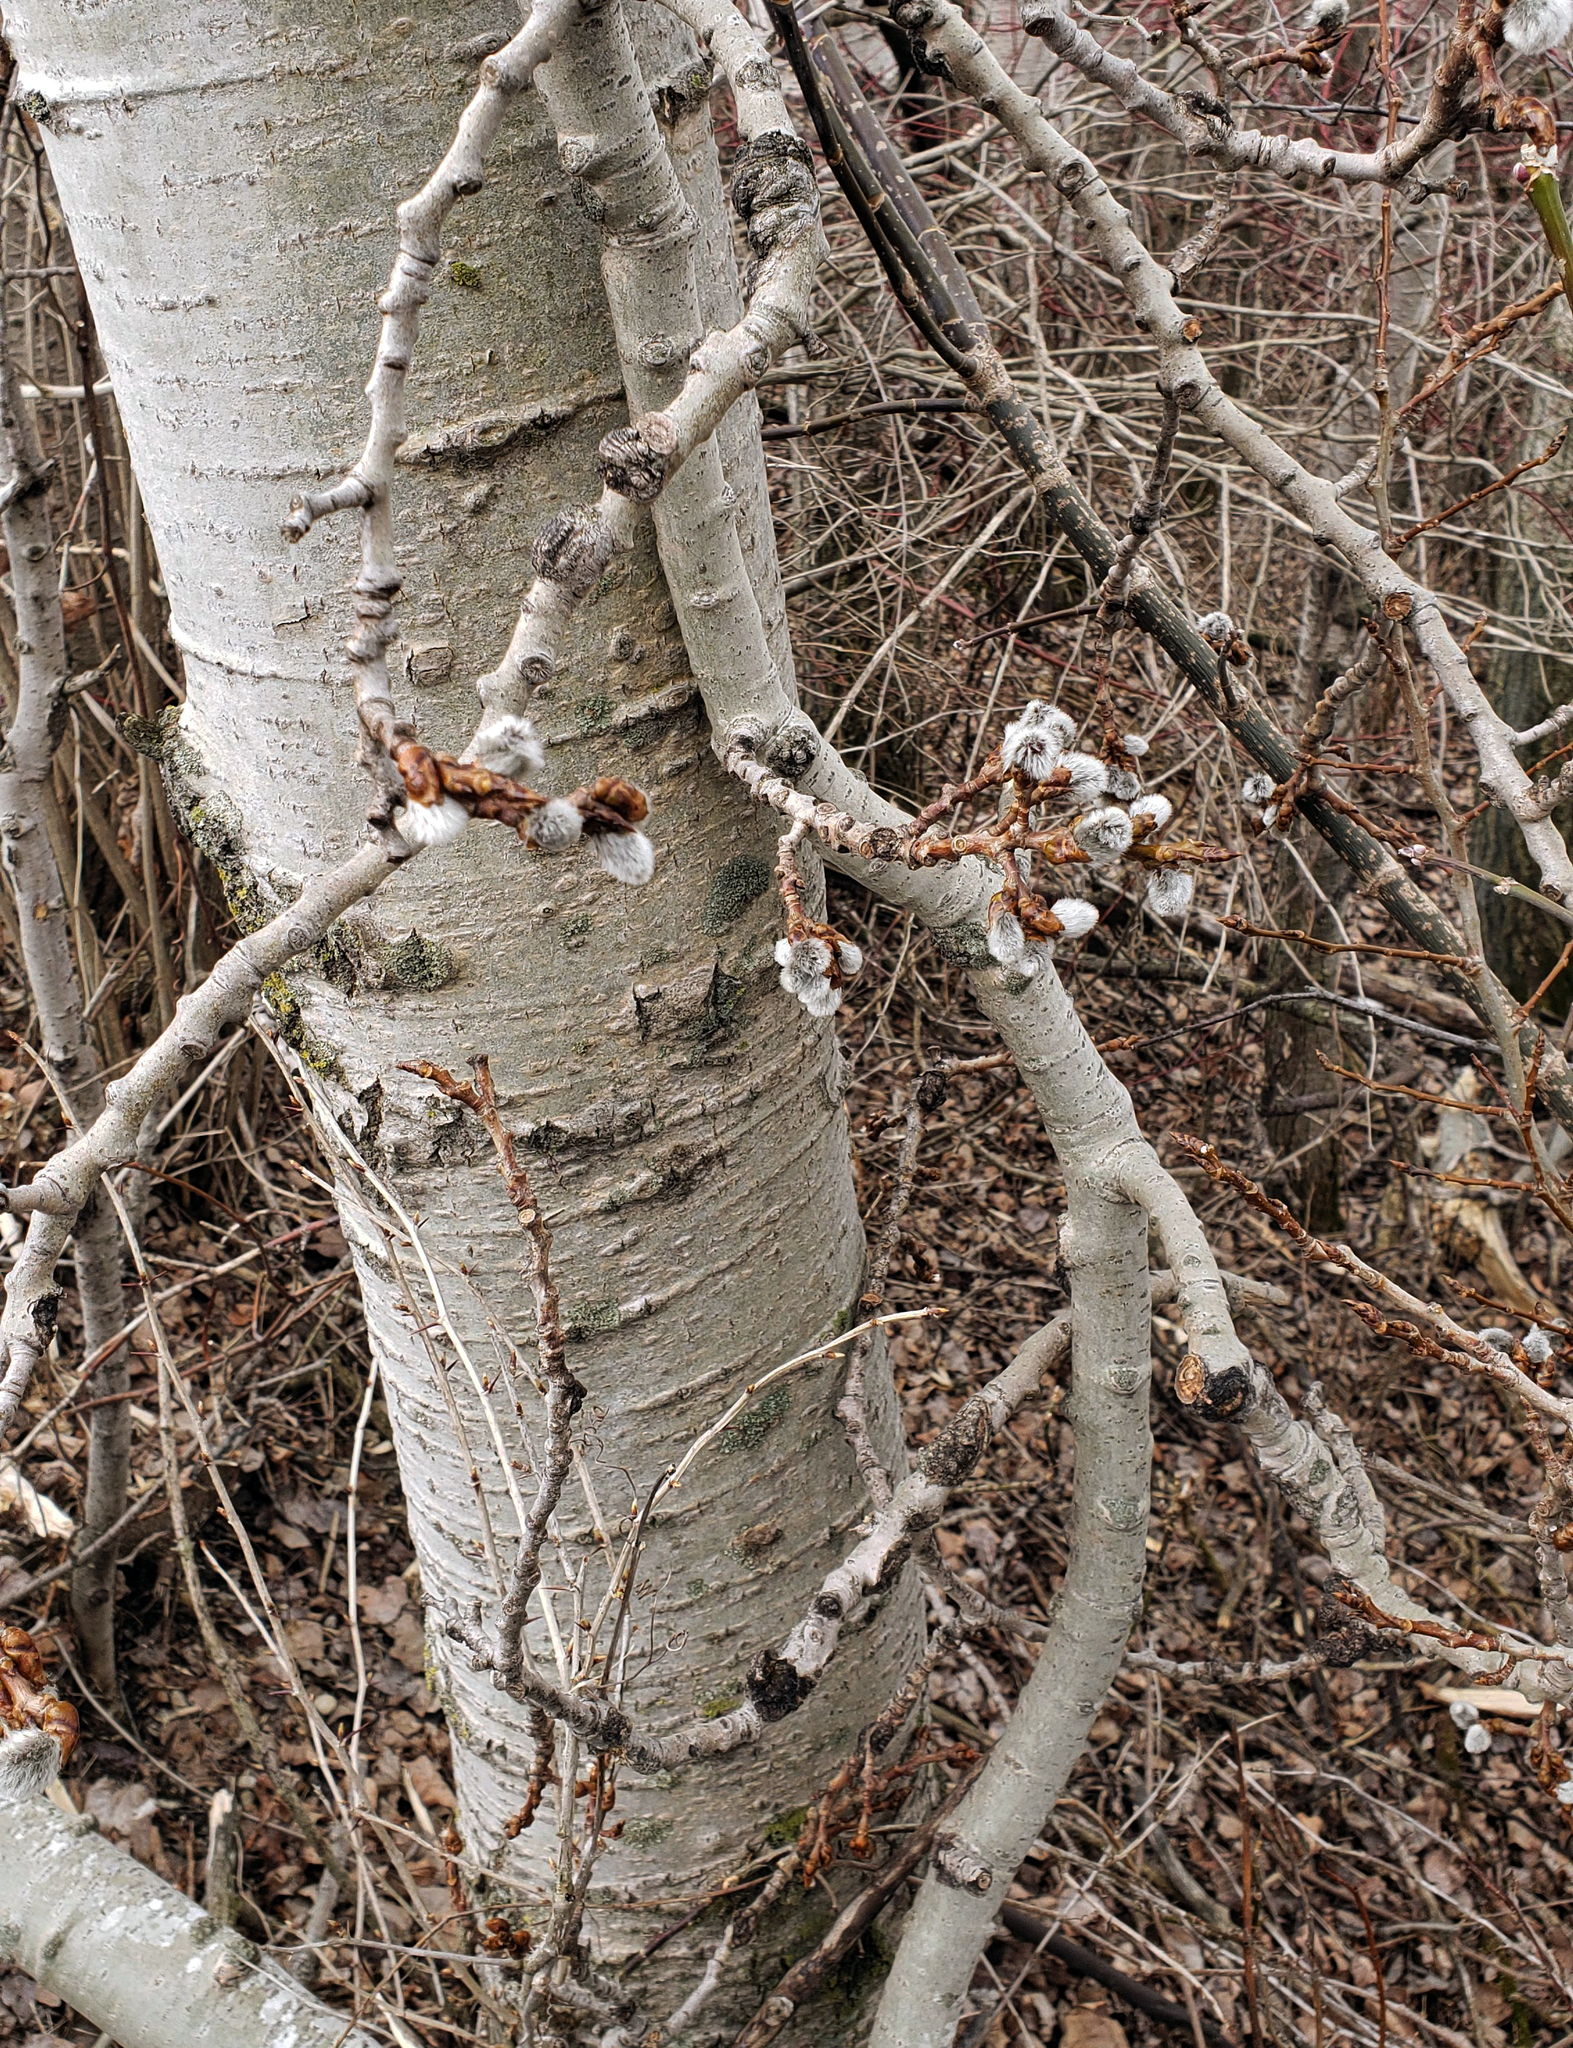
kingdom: Plantae
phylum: Tracheophyta
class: Magnoliopsida
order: Malpighiales
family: Salicaceae
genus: Populus
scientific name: Populus tremuloides
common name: Quaking aspen
